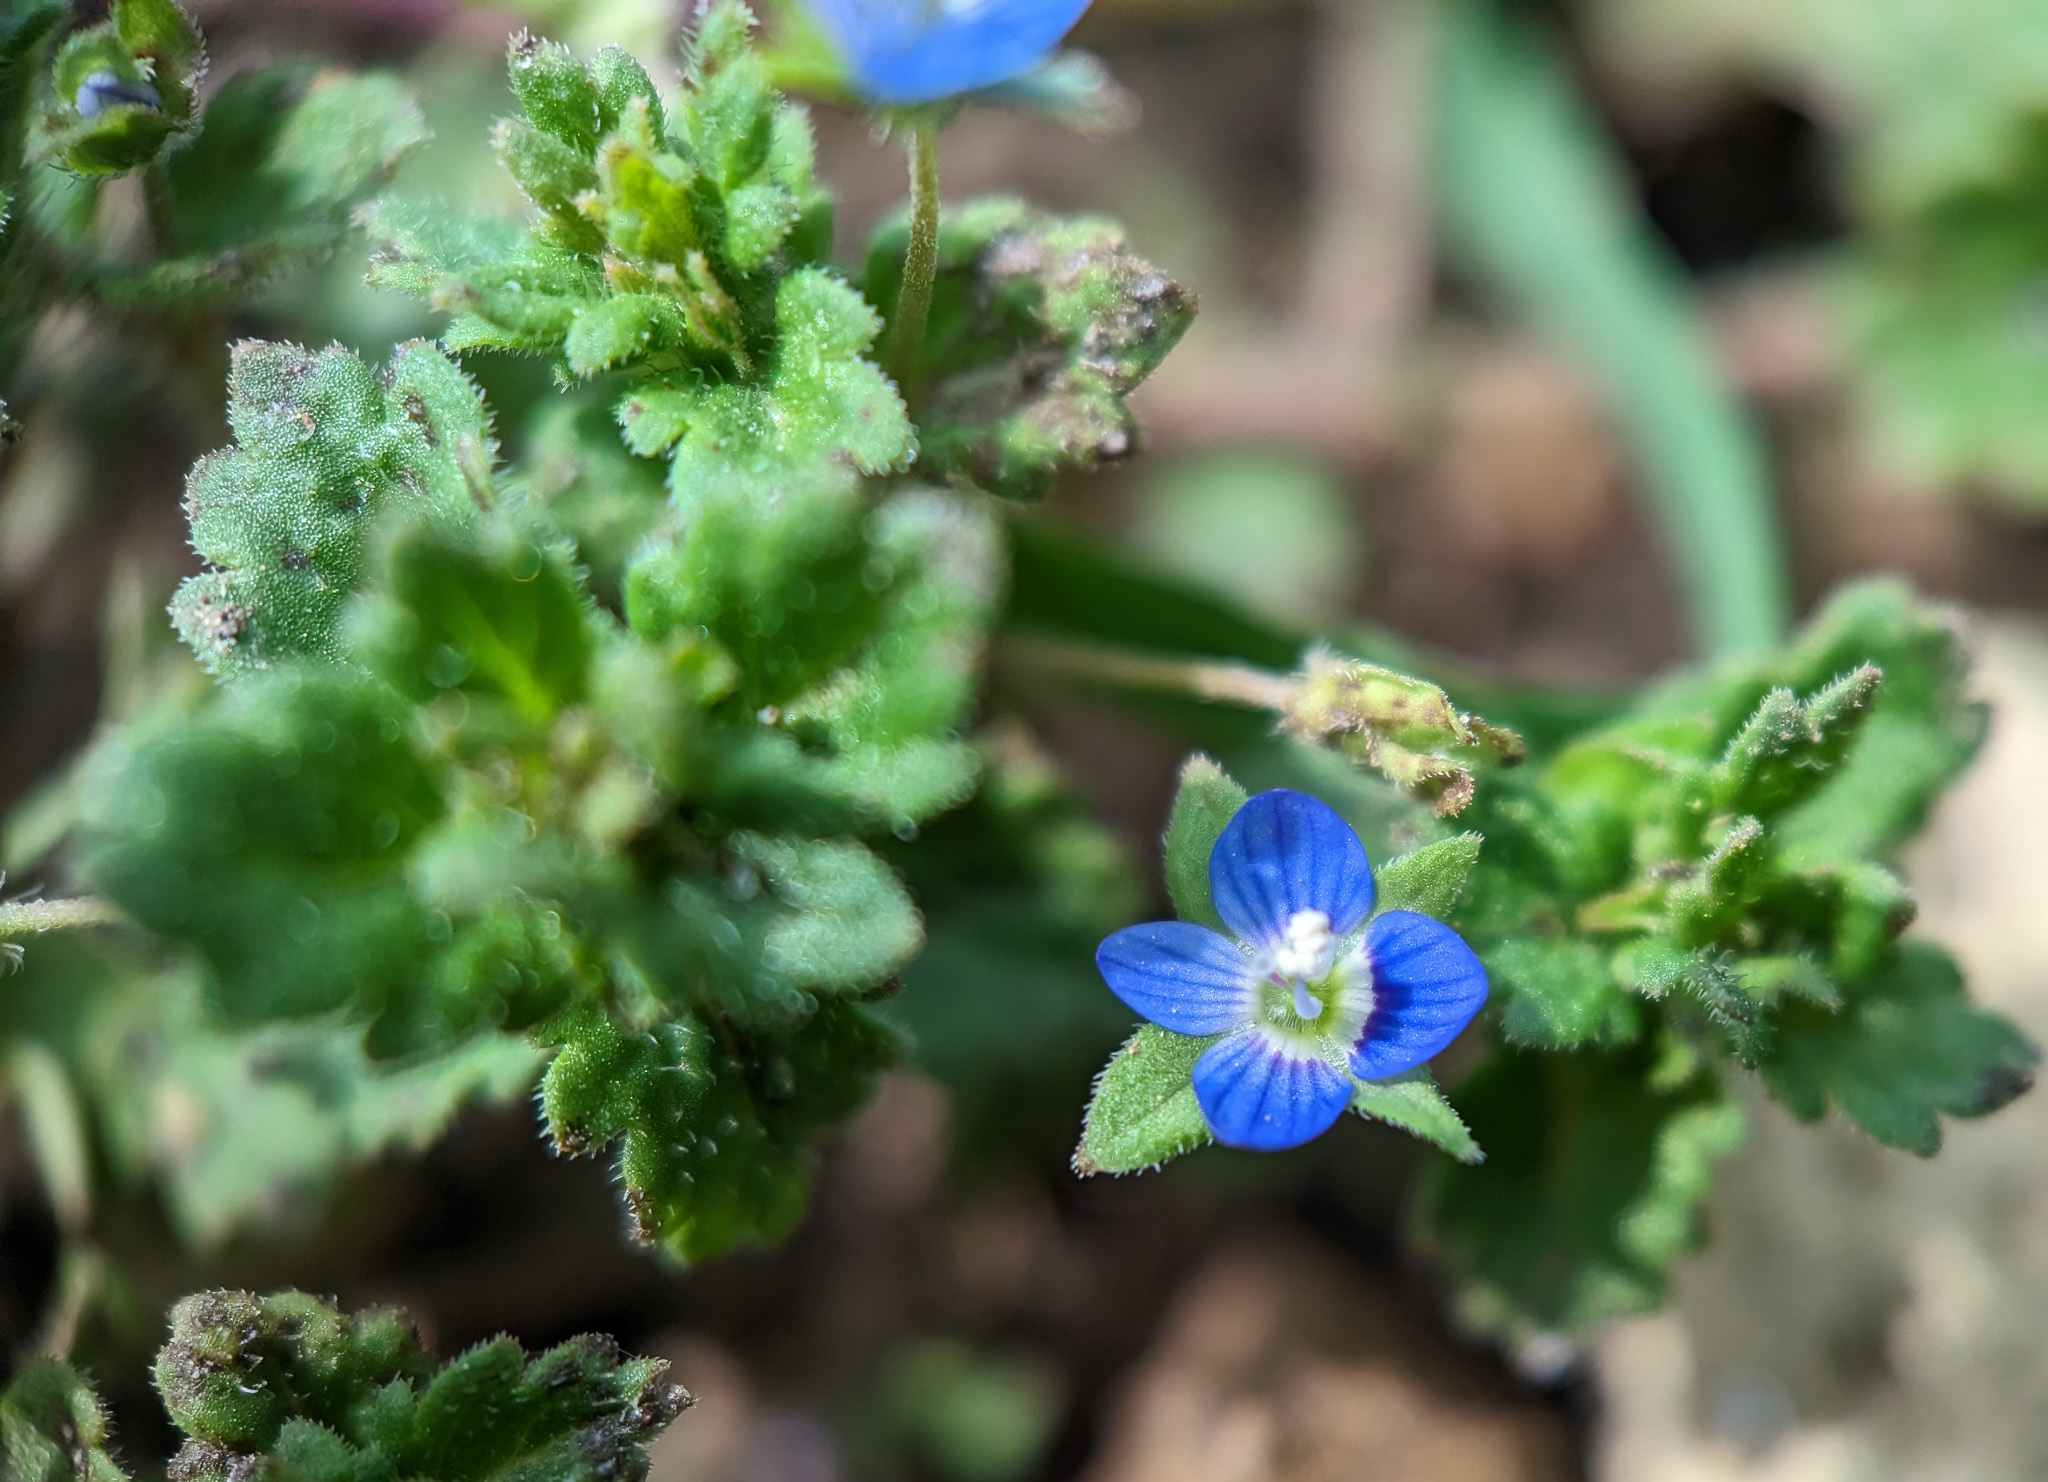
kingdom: Plantae
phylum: Tracheophyta
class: Magnoliopsida
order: Lamiales
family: Plantaginaceae
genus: Veronica
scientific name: Veronica persica
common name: Common field-speedwell
